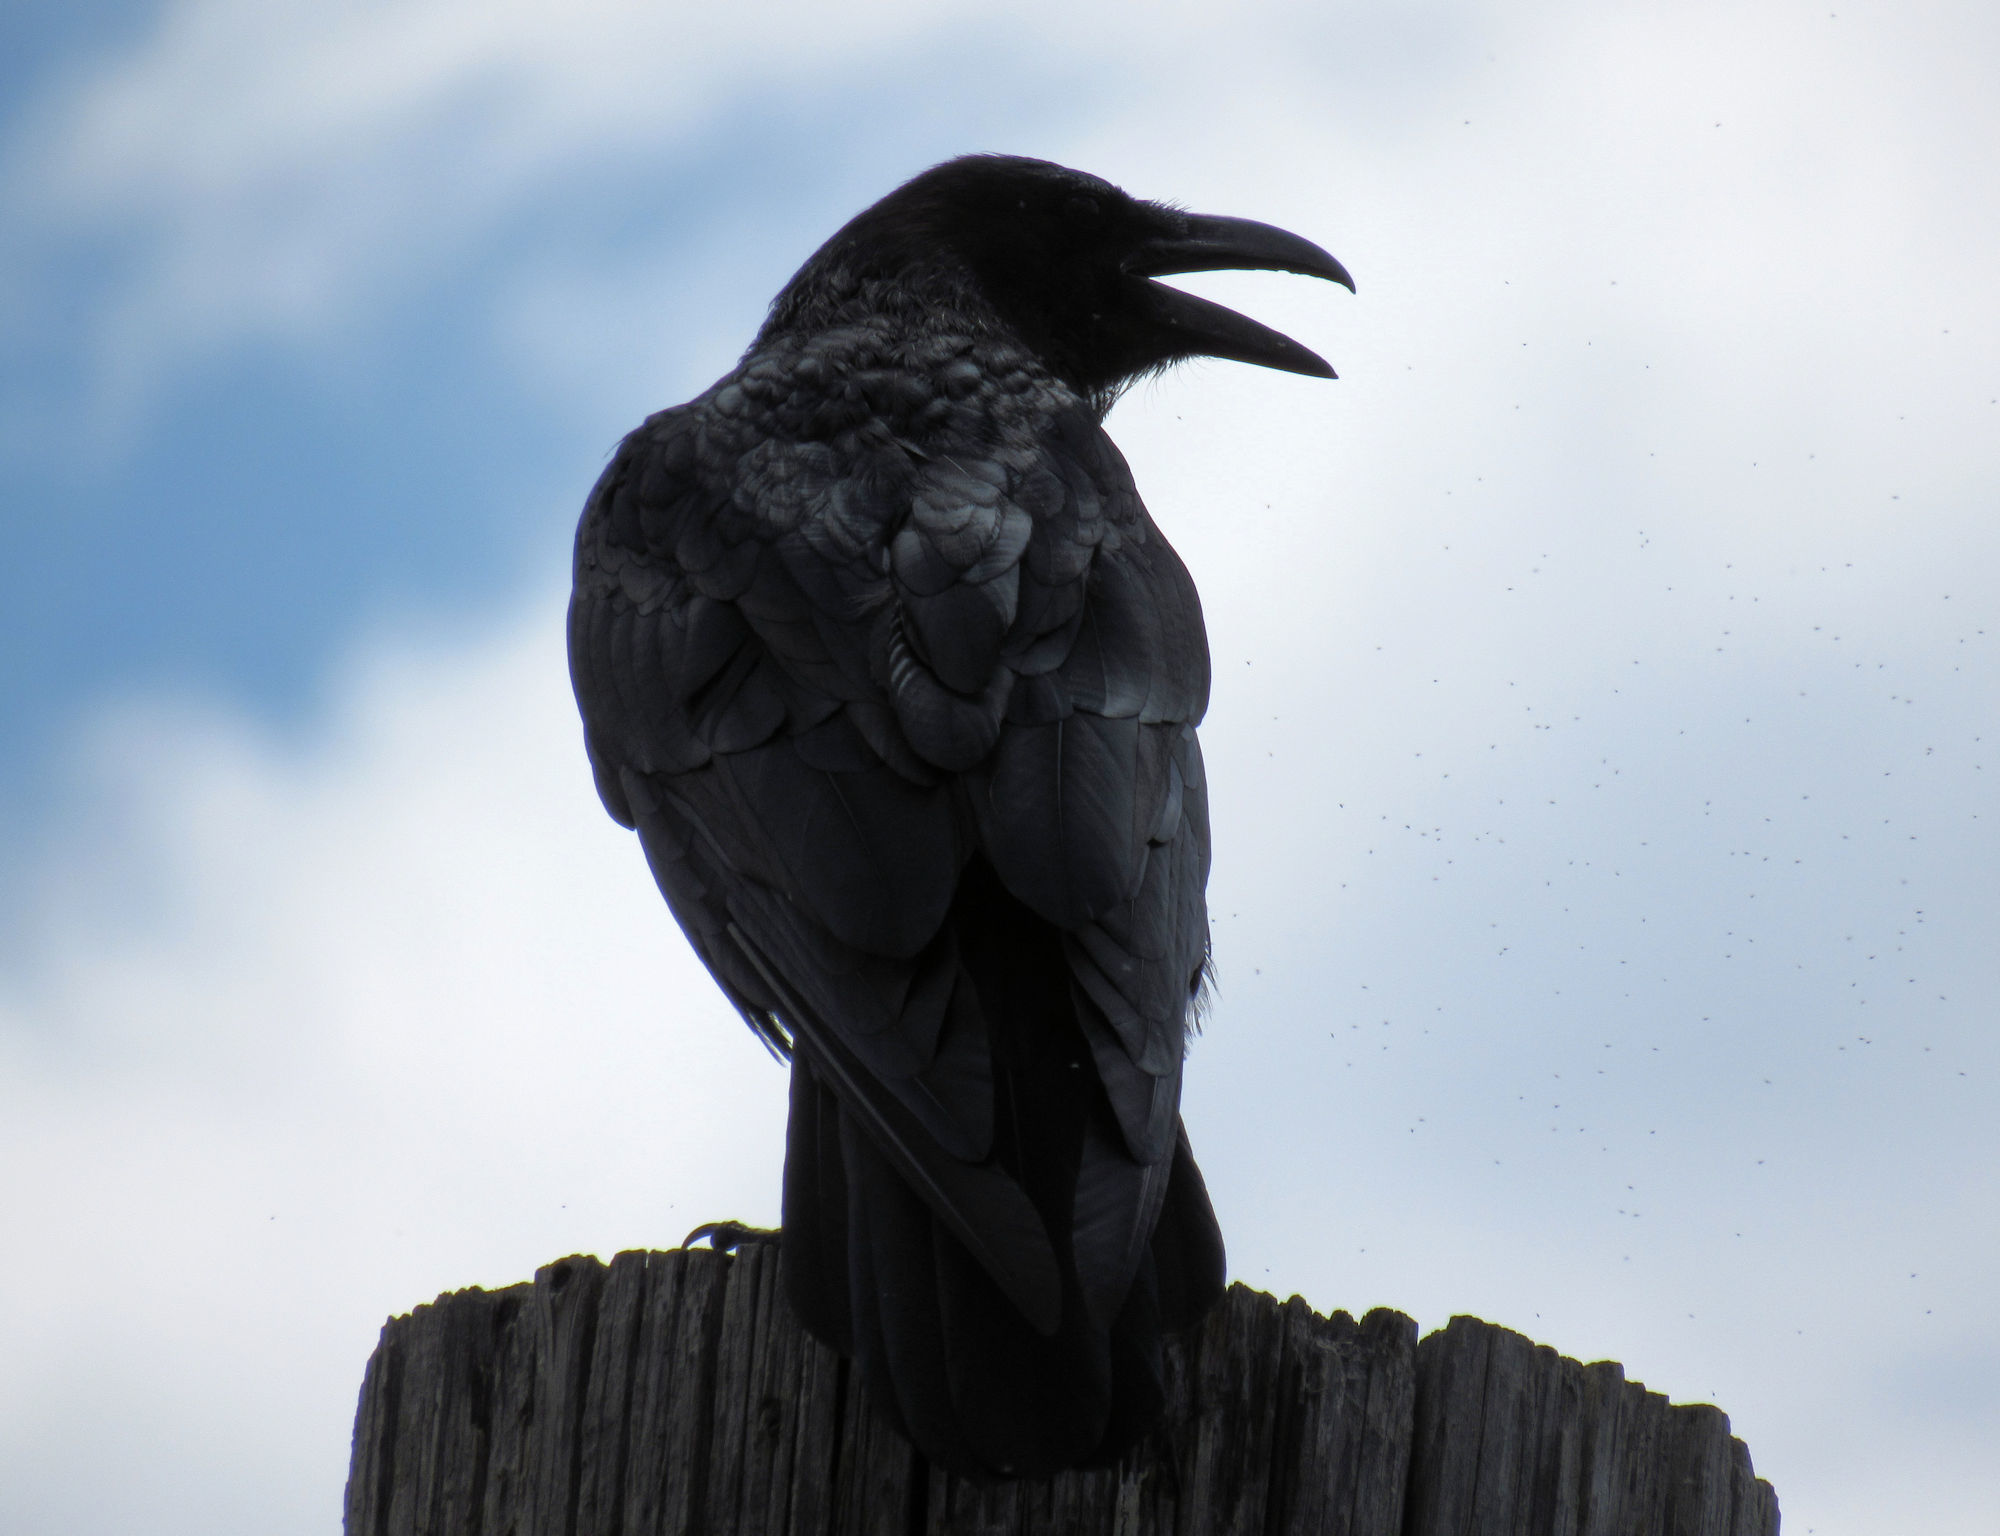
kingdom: Animalia
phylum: Chordata
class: Aves
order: Passeriformes
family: Corvidae
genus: Corvus
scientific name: Corvus corax
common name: Common raven
